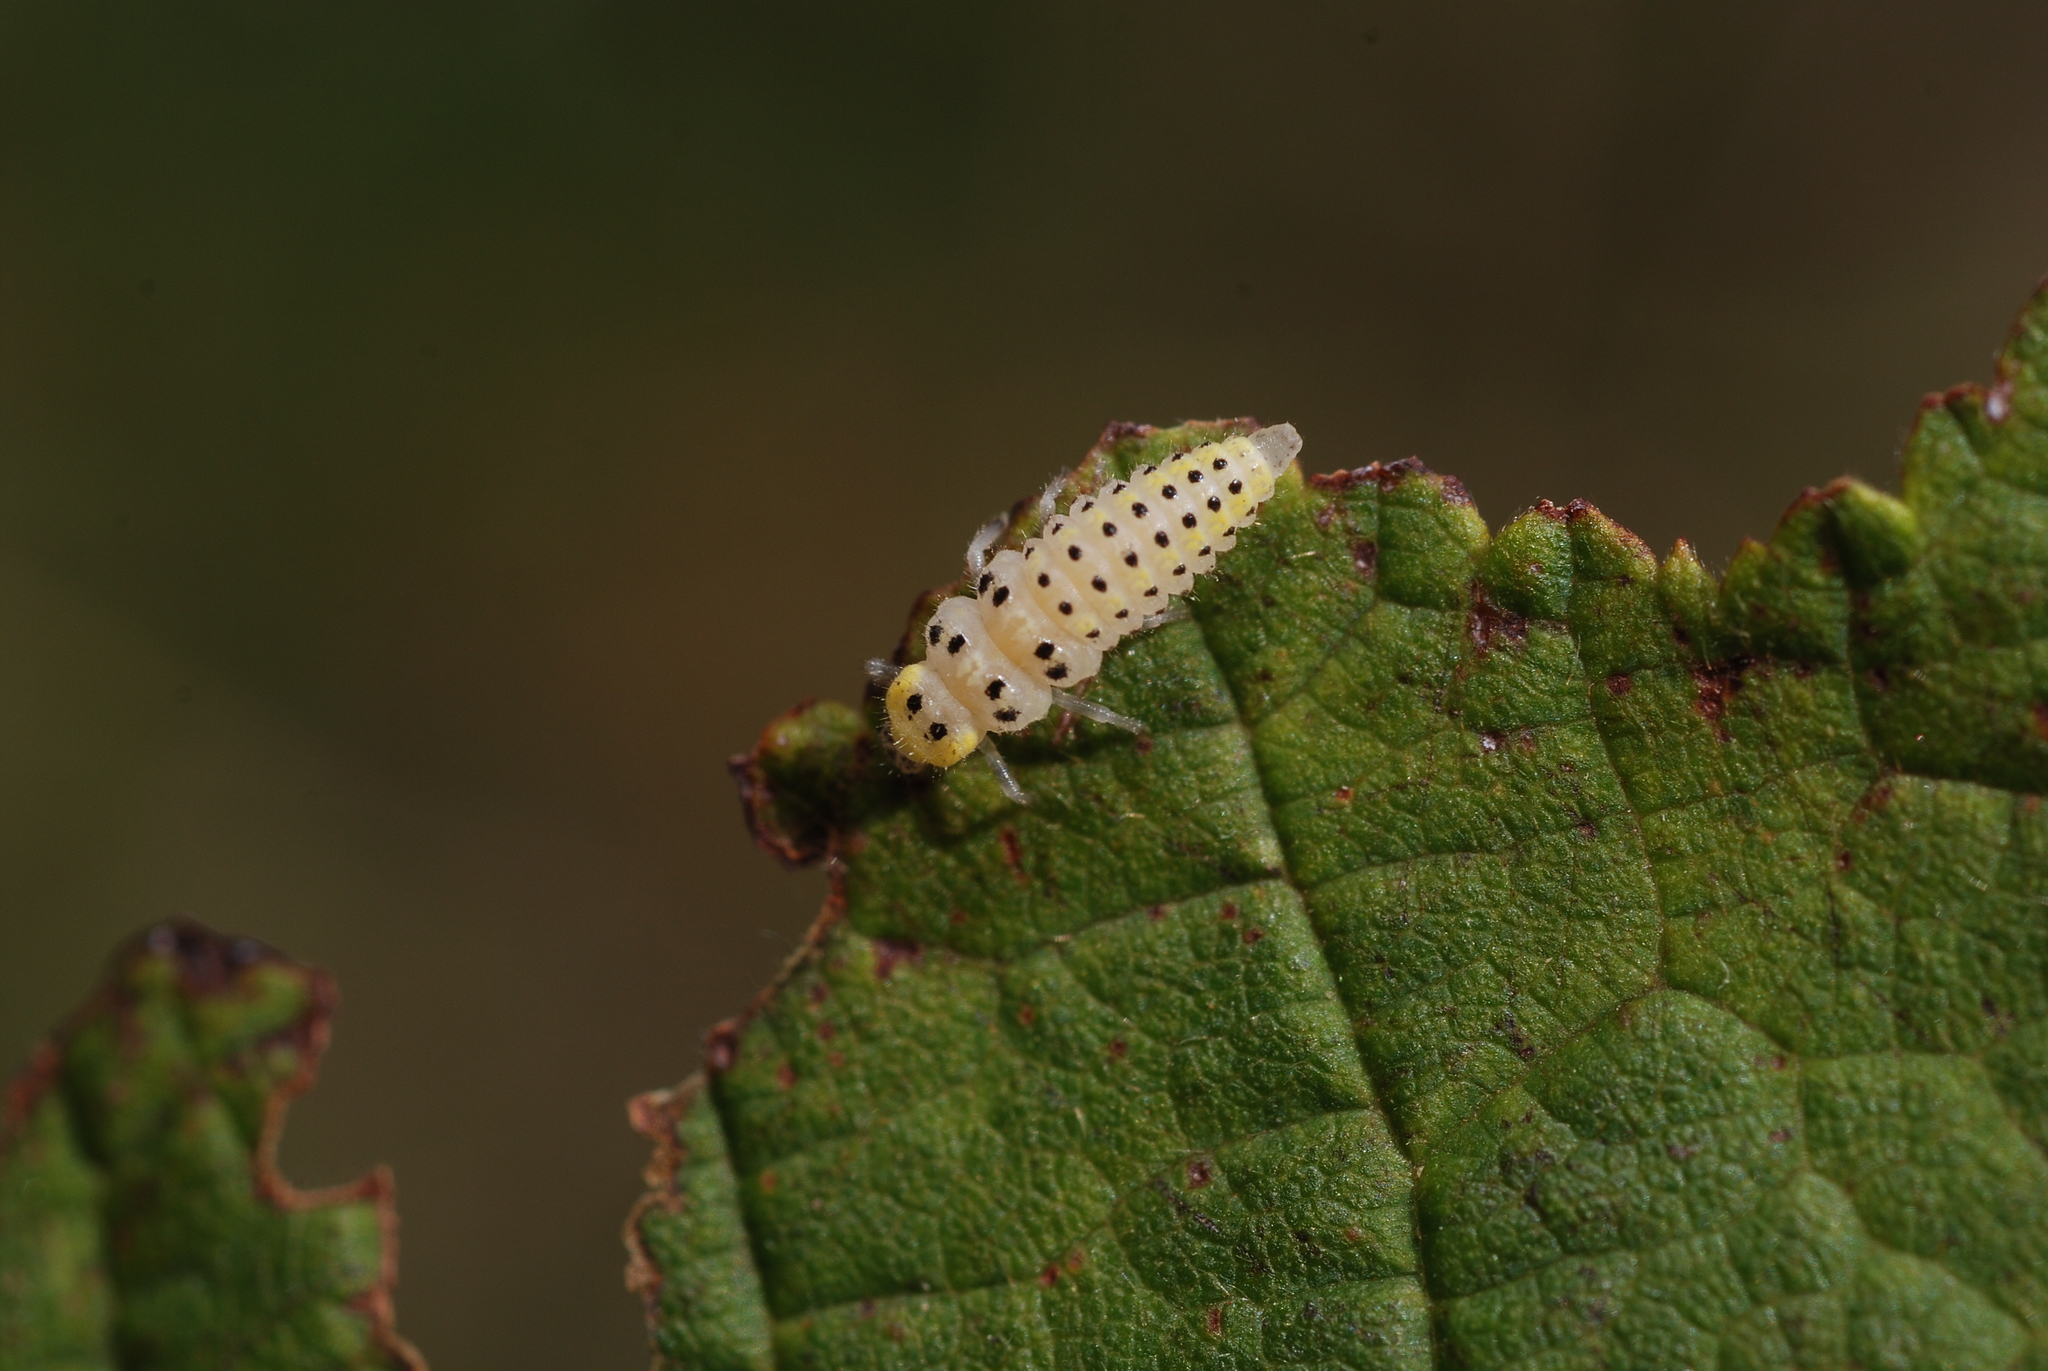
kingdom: Animalia
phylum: Arthropoda
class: Insecta
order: Coleoptera
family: Coccinellidae
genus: Vibidia
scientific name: Vibidia duodecimguttata
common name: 12-spot ladybird
